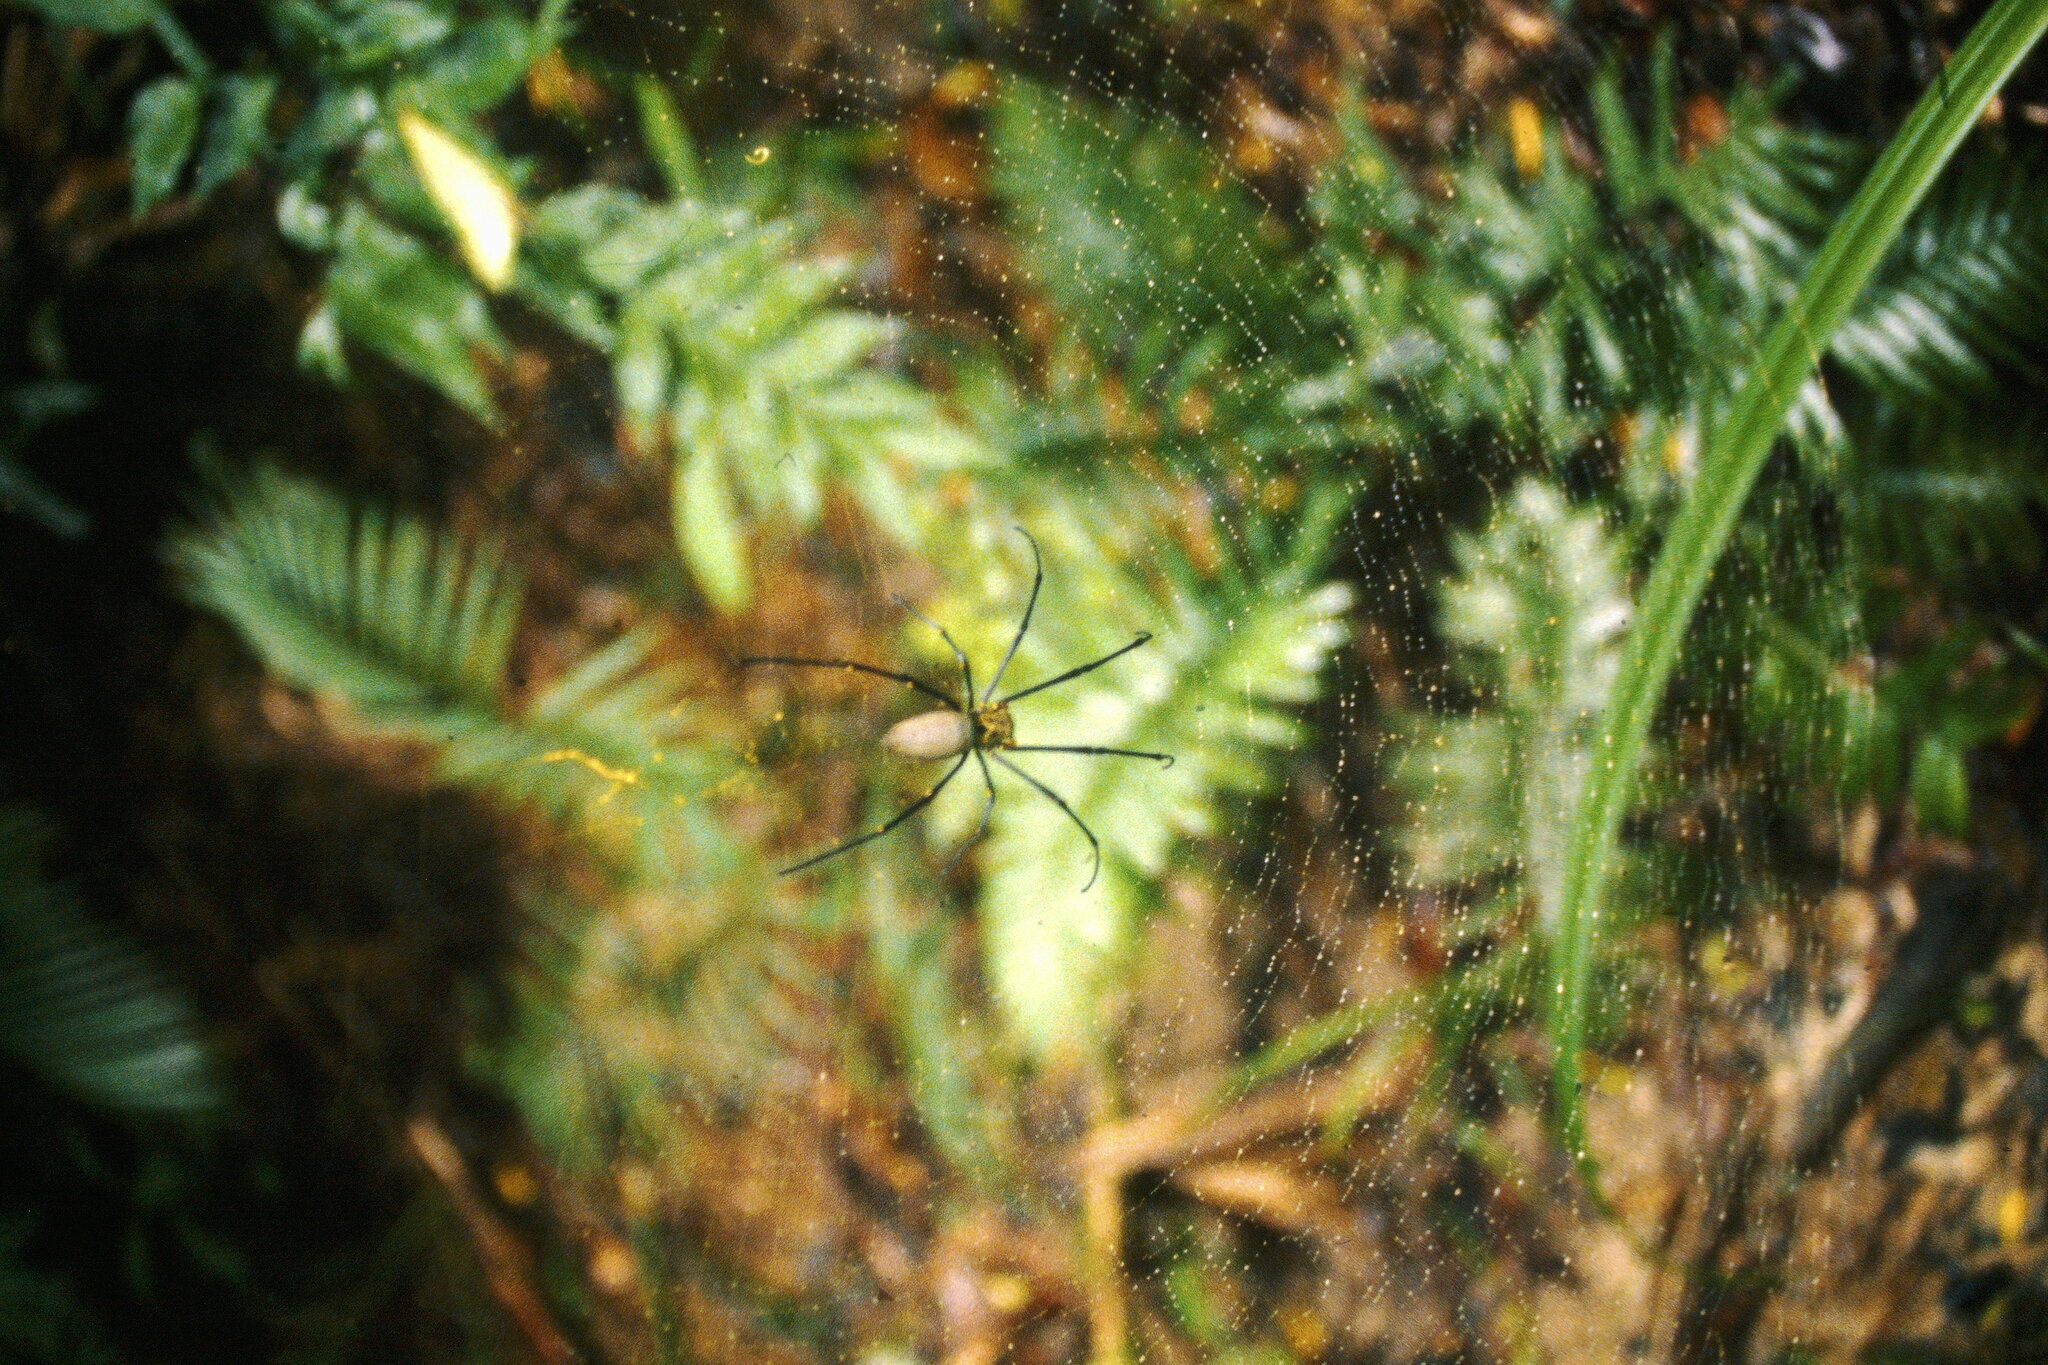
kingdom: Animalia
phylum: Arthropoda
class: Arachnida
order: Araneae
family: Araneidae
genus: Nephila
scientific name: Nephila pilipes
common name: Giant golden orb weaver
